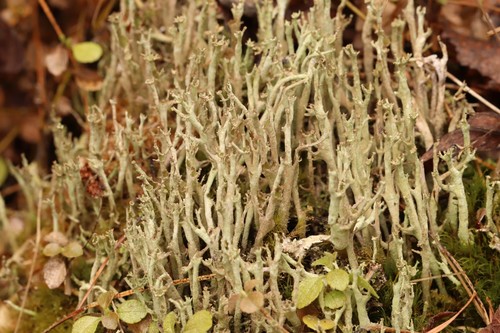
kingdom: Fungi
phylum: Ascomycota
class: Lecanoromycetes
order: Lecanorales
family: Cladoniaceae
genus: Cladonia
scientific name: Cladonia cenotea
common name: Powdered funnel lichen
